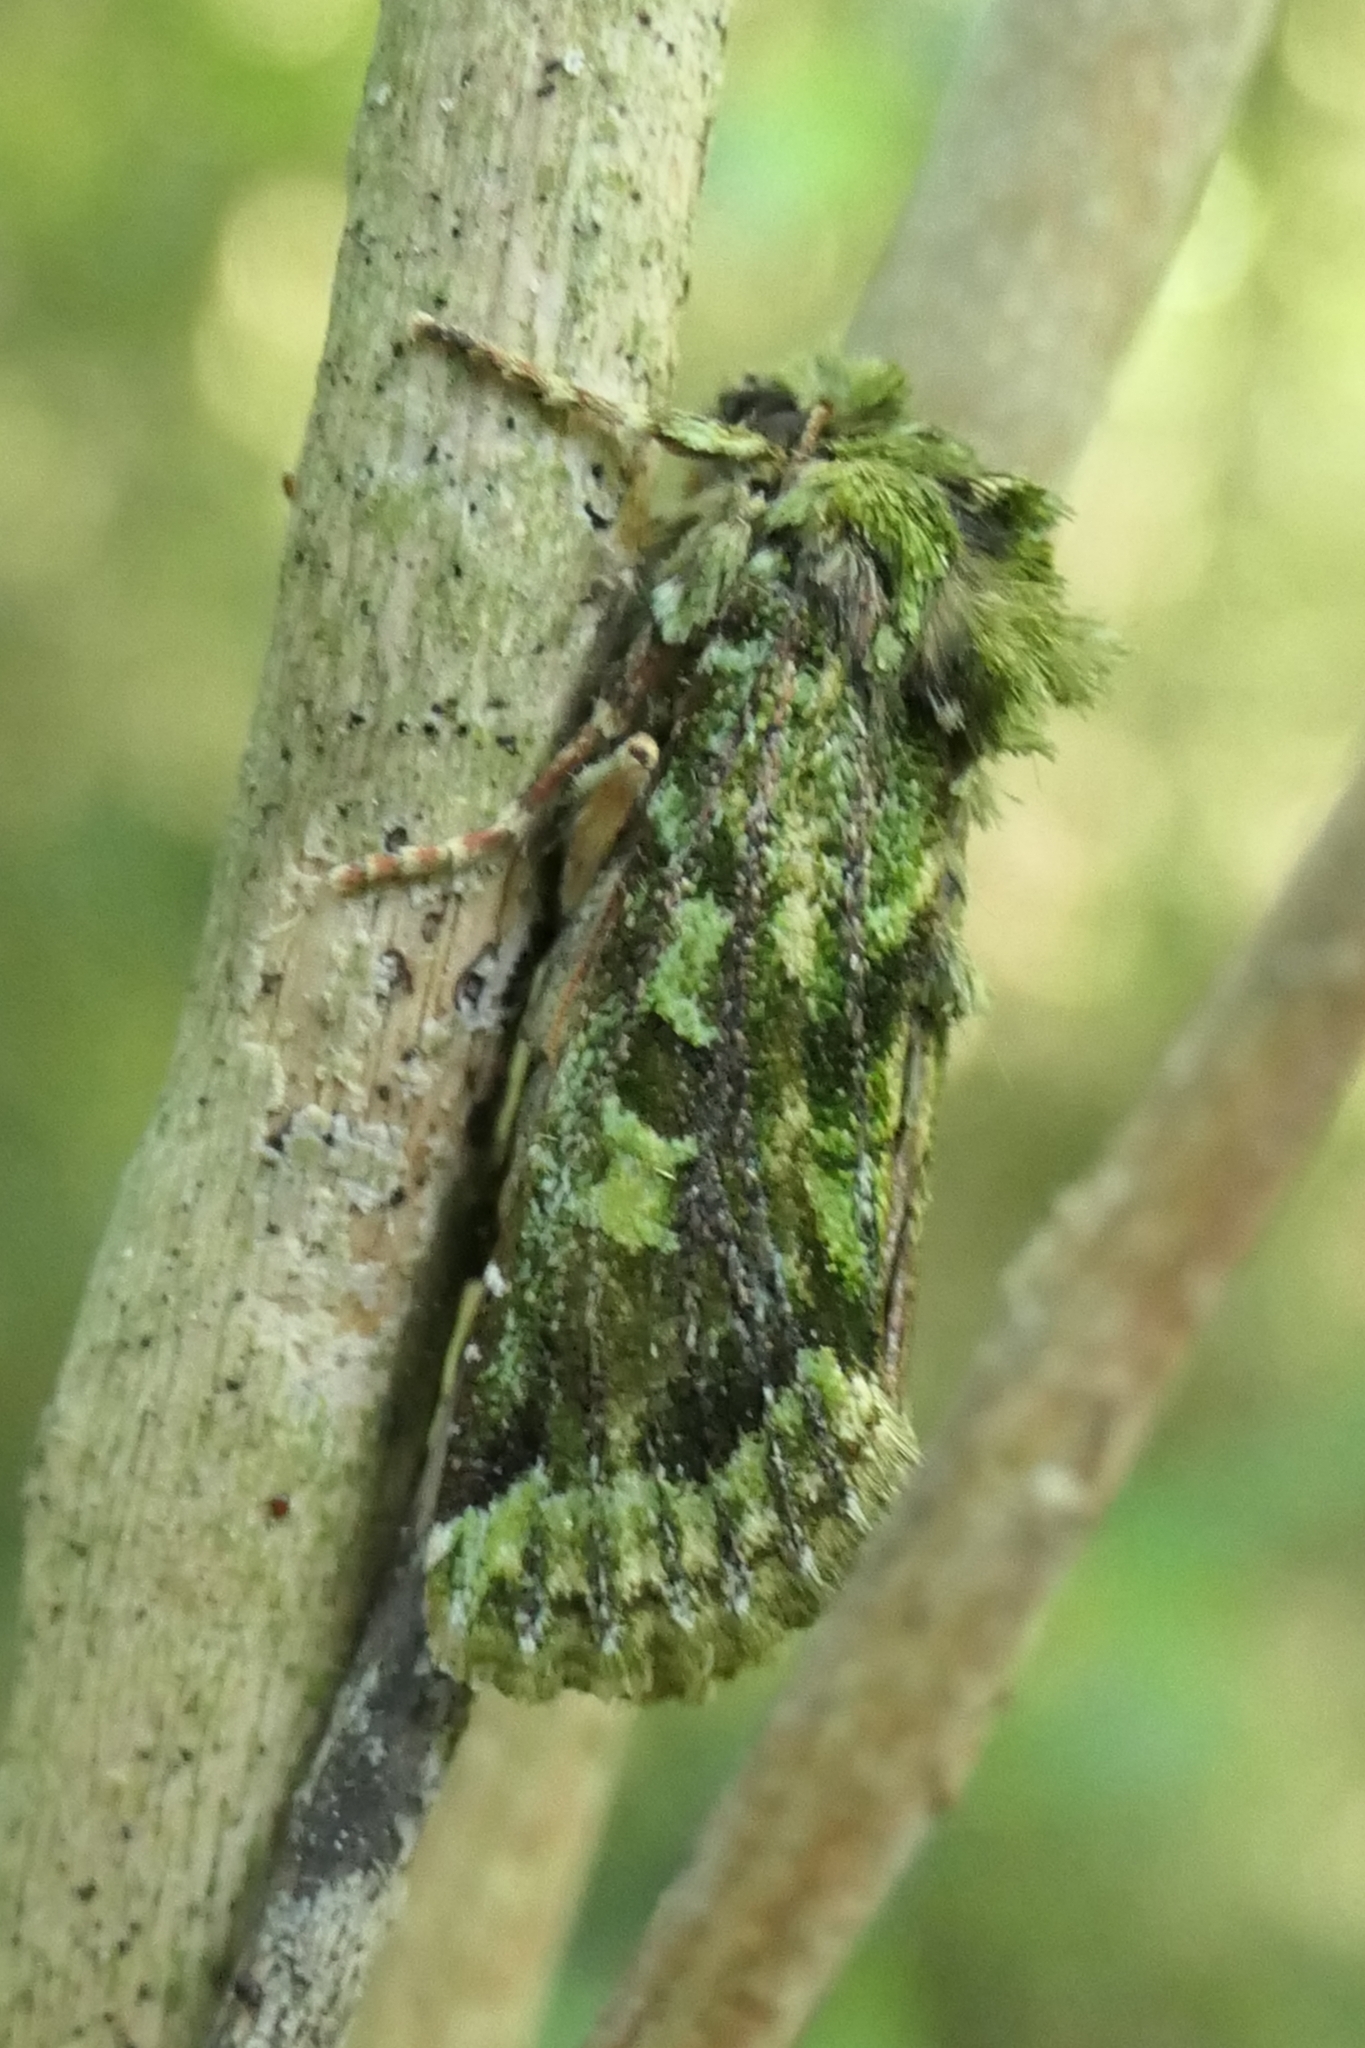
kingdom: Animalia
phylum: Arthropoda
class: Insecta
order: Lepidoptera
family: Noctuidae
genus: Feredayia
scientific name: Feredayia grammosa
